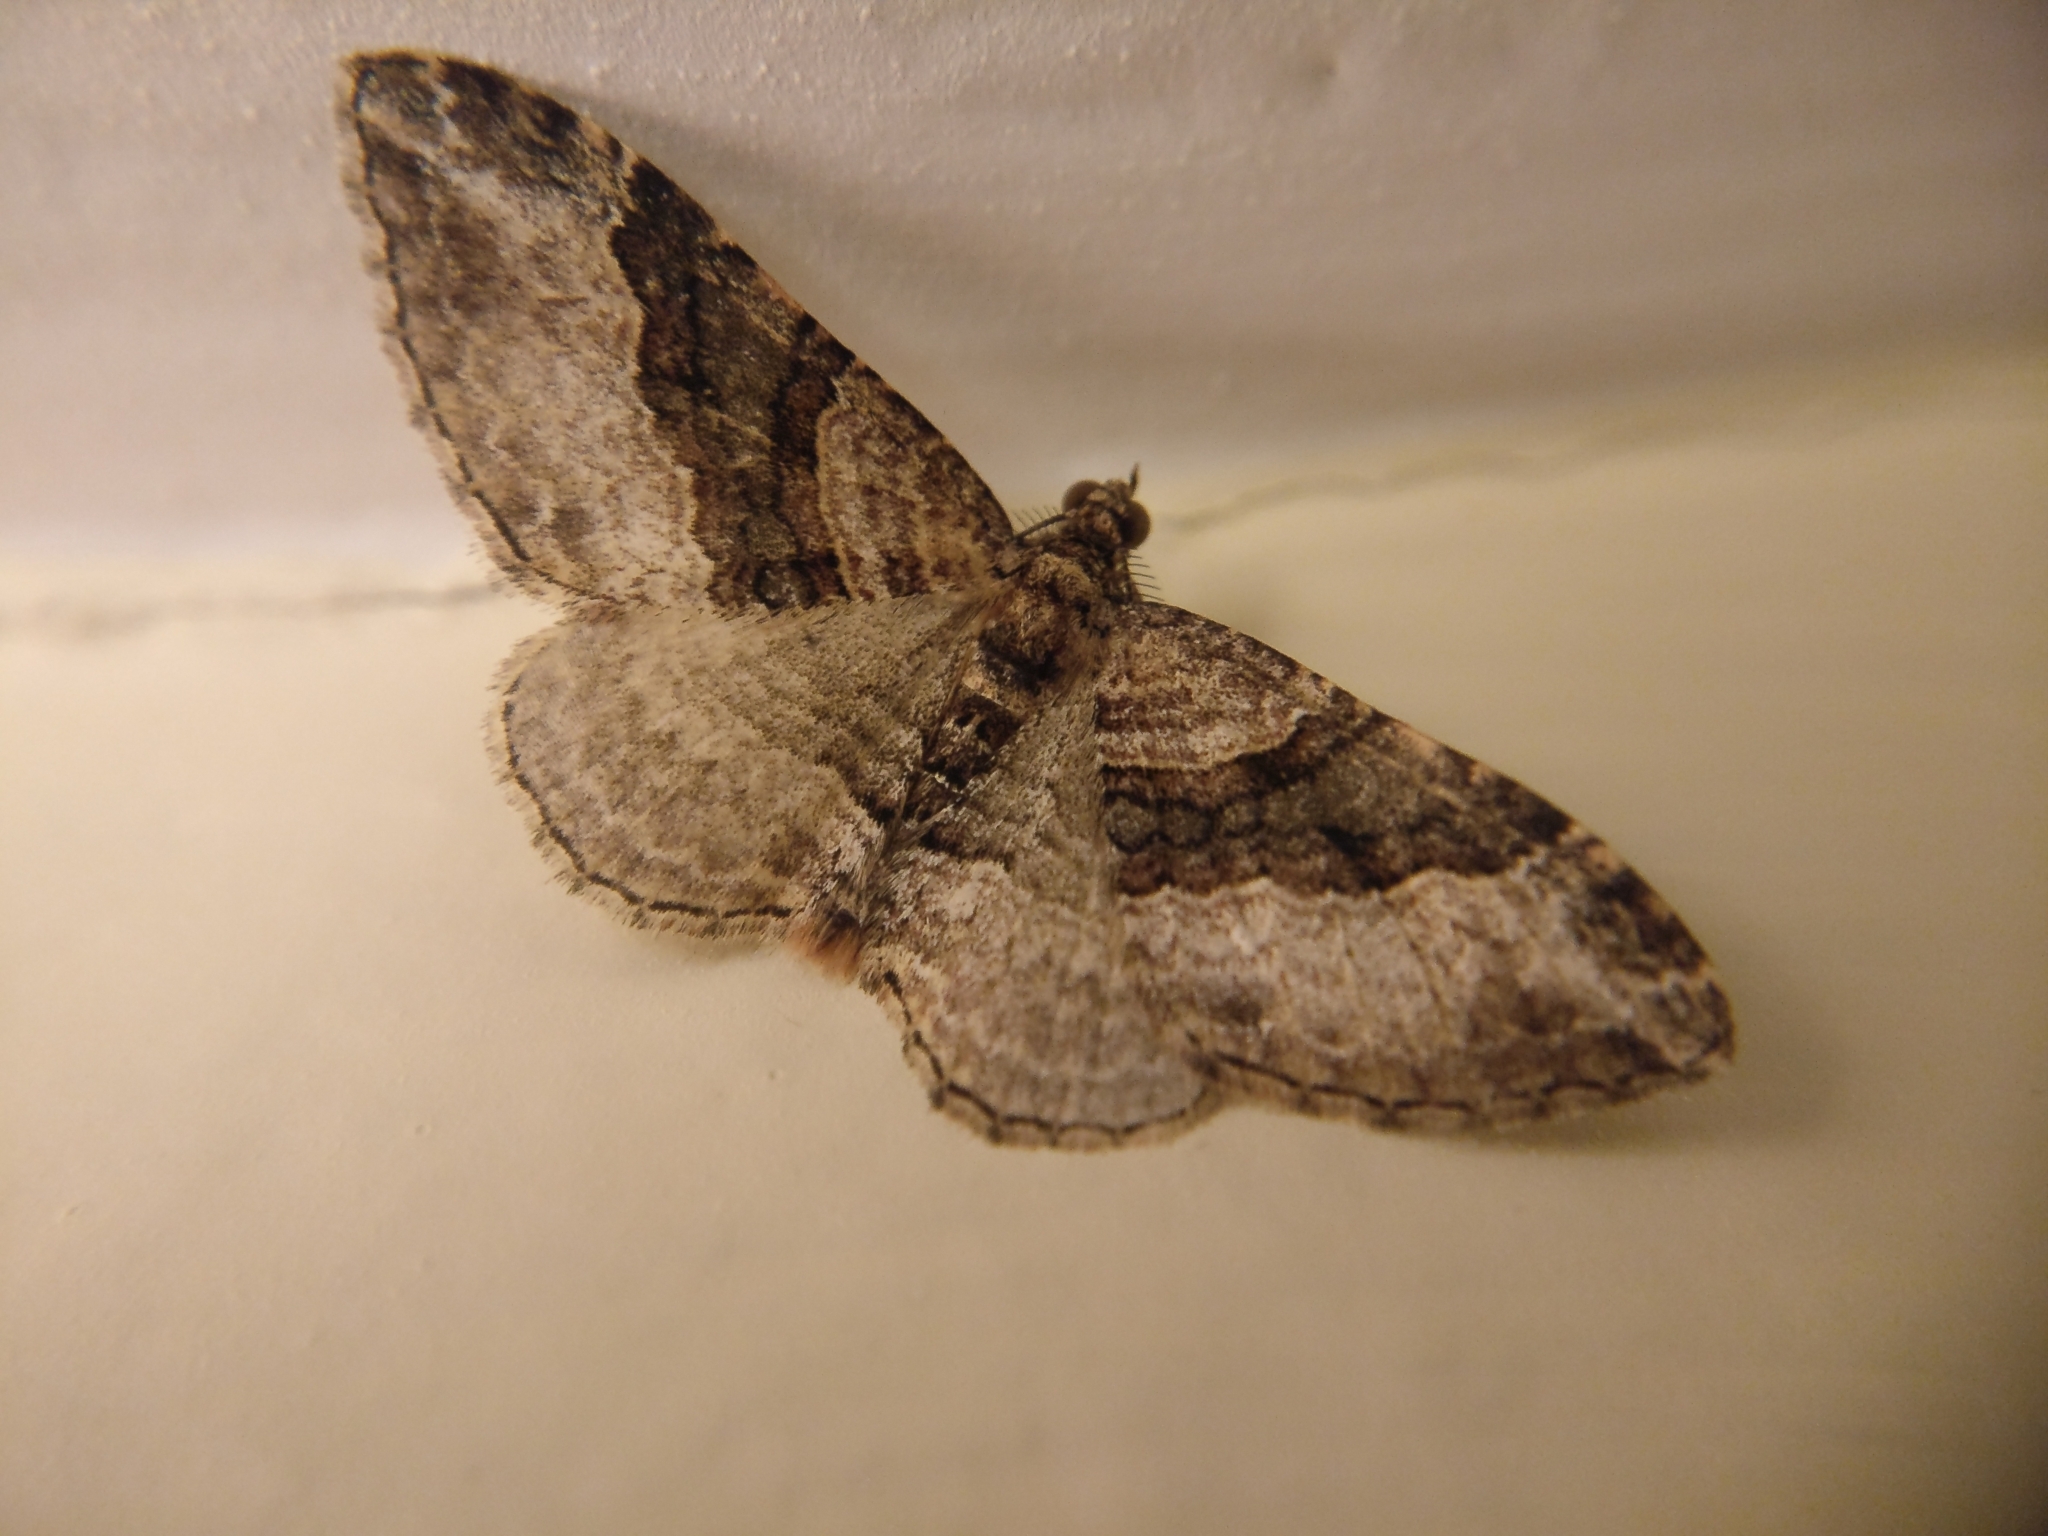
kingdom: Animalia
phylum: Arthropoda
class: Insecta
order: Lepidoptera
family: Geometridae
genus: Epyaxa
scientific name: Epyaxa lucidata
